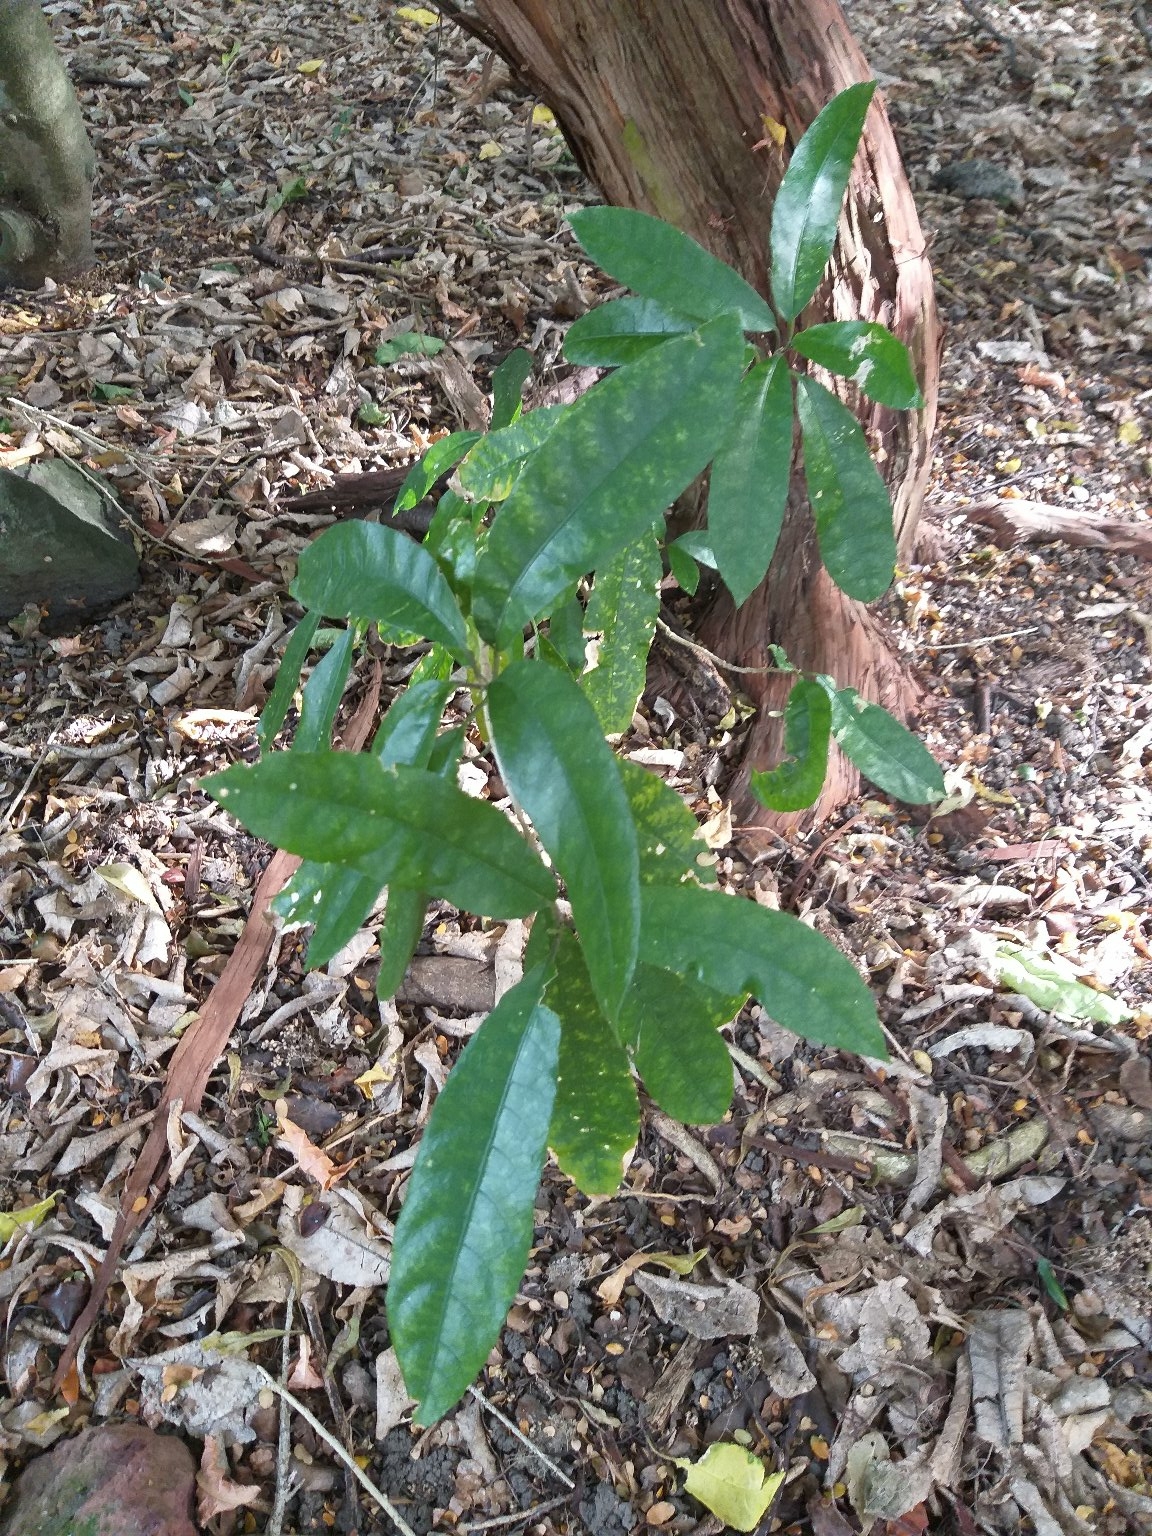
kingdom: Plantae
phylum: Tracheophyta
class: Magnoliopsida
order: Malpighiales
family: Violaceae
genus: Melicytus
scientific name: Melicytus ramiflorus
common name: Mahoe
